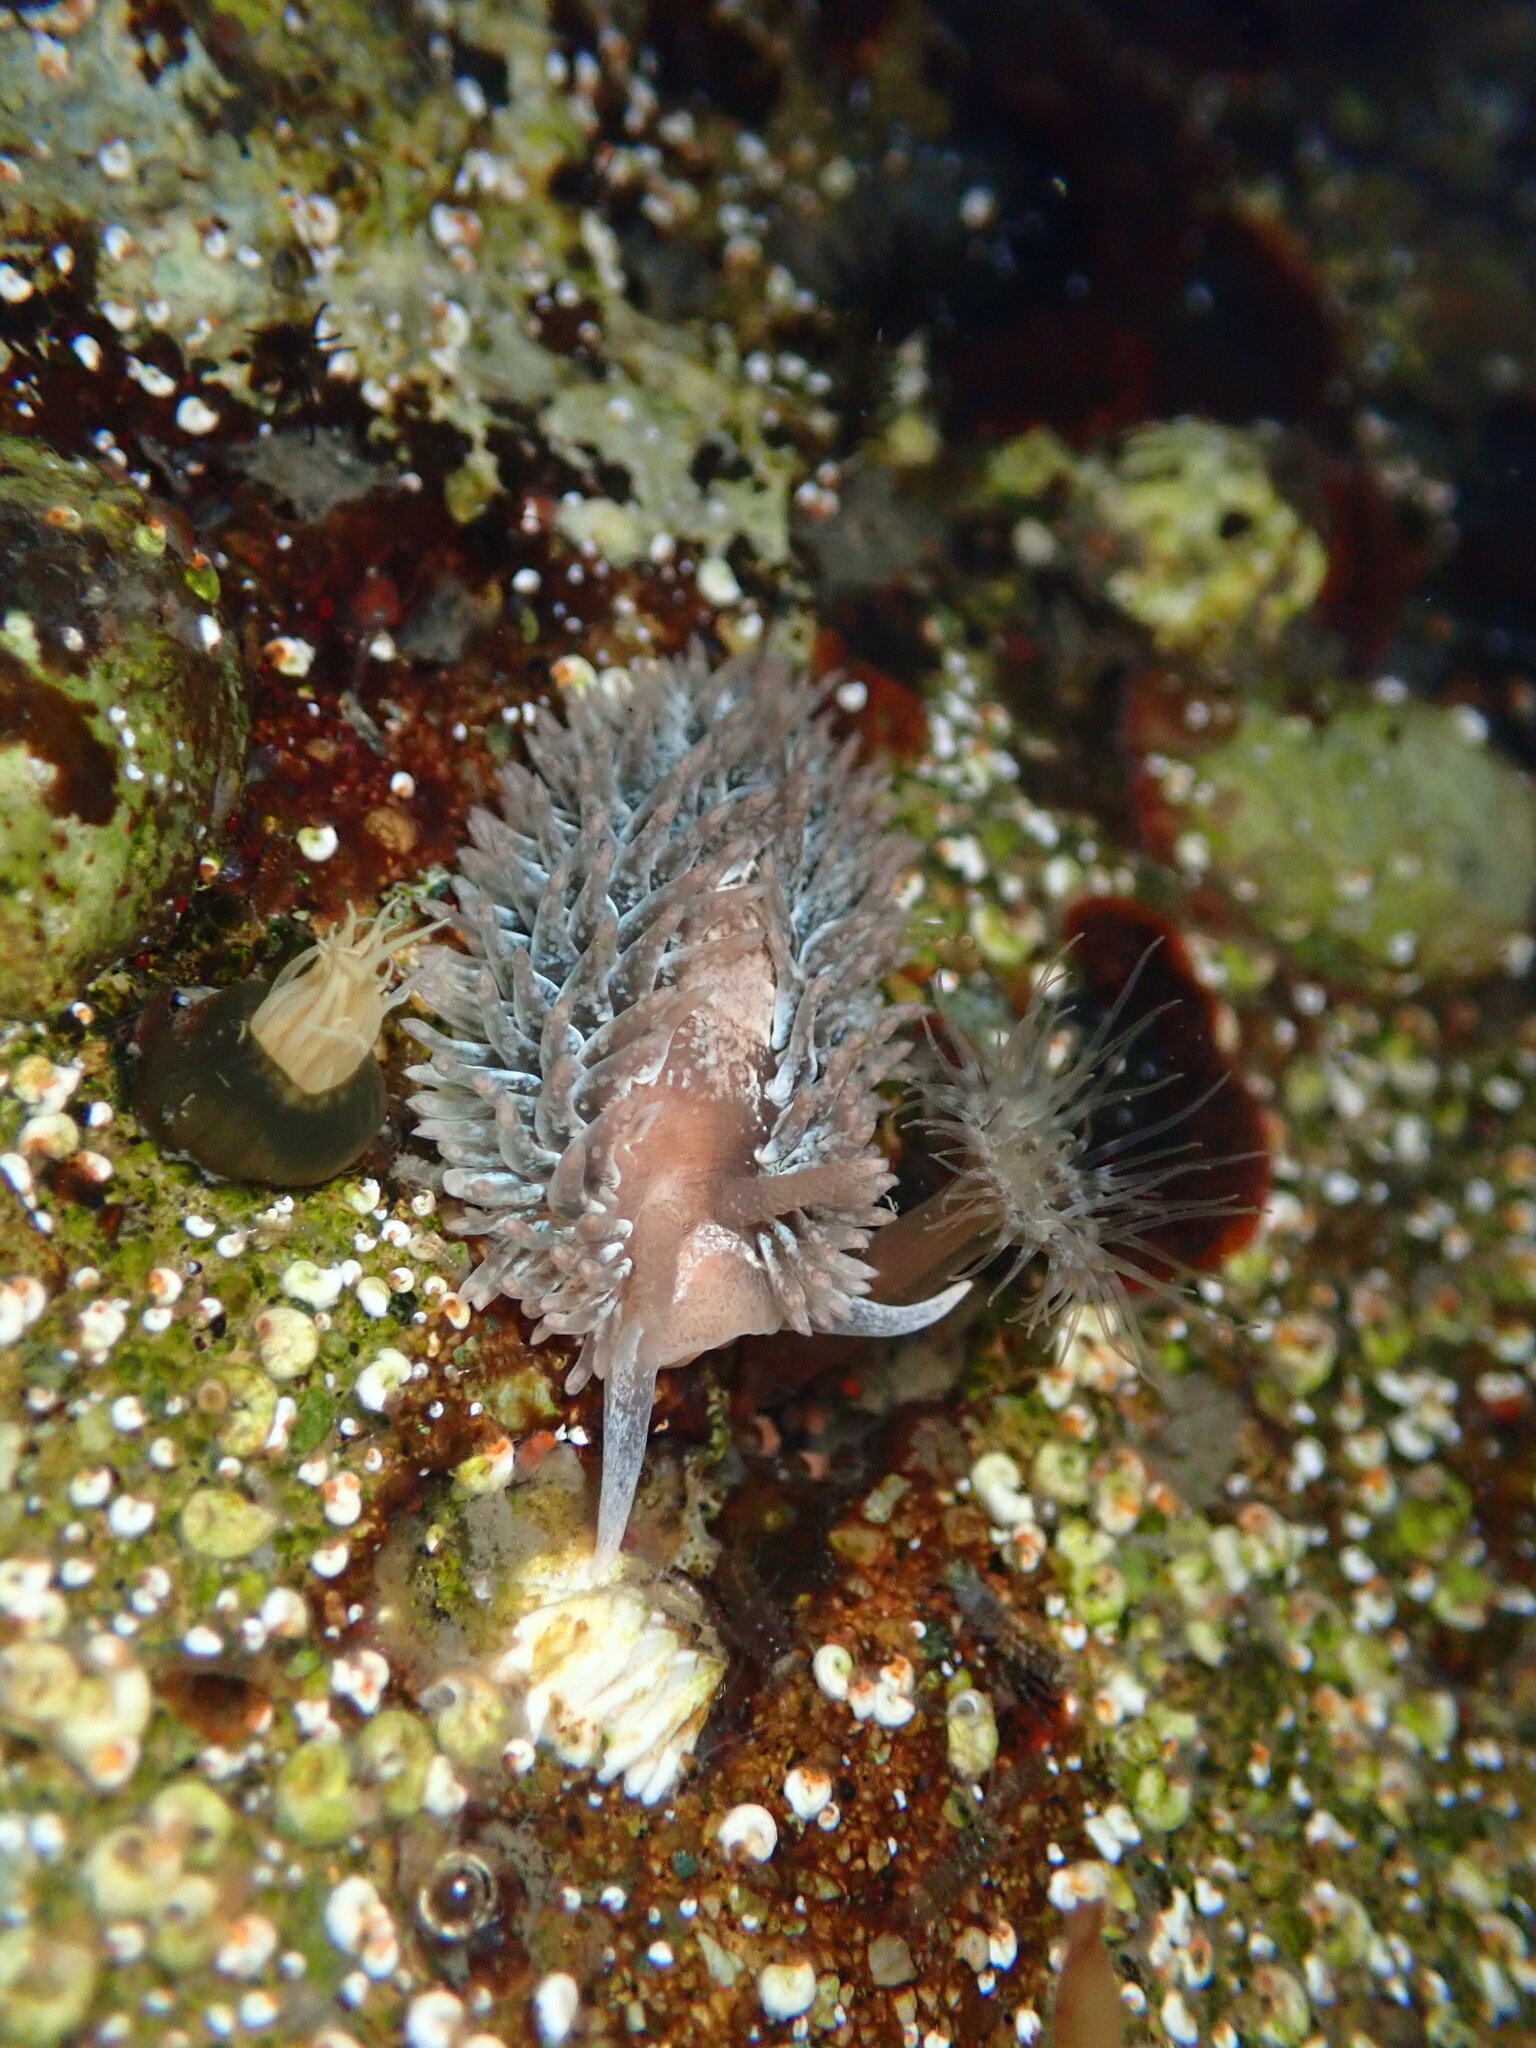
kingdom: Animalia
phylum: Mollusca
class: Gastropoda
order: Nudibranchia
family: Aeolidiidae
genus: Aeolidia
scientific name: Aeolidia loui
